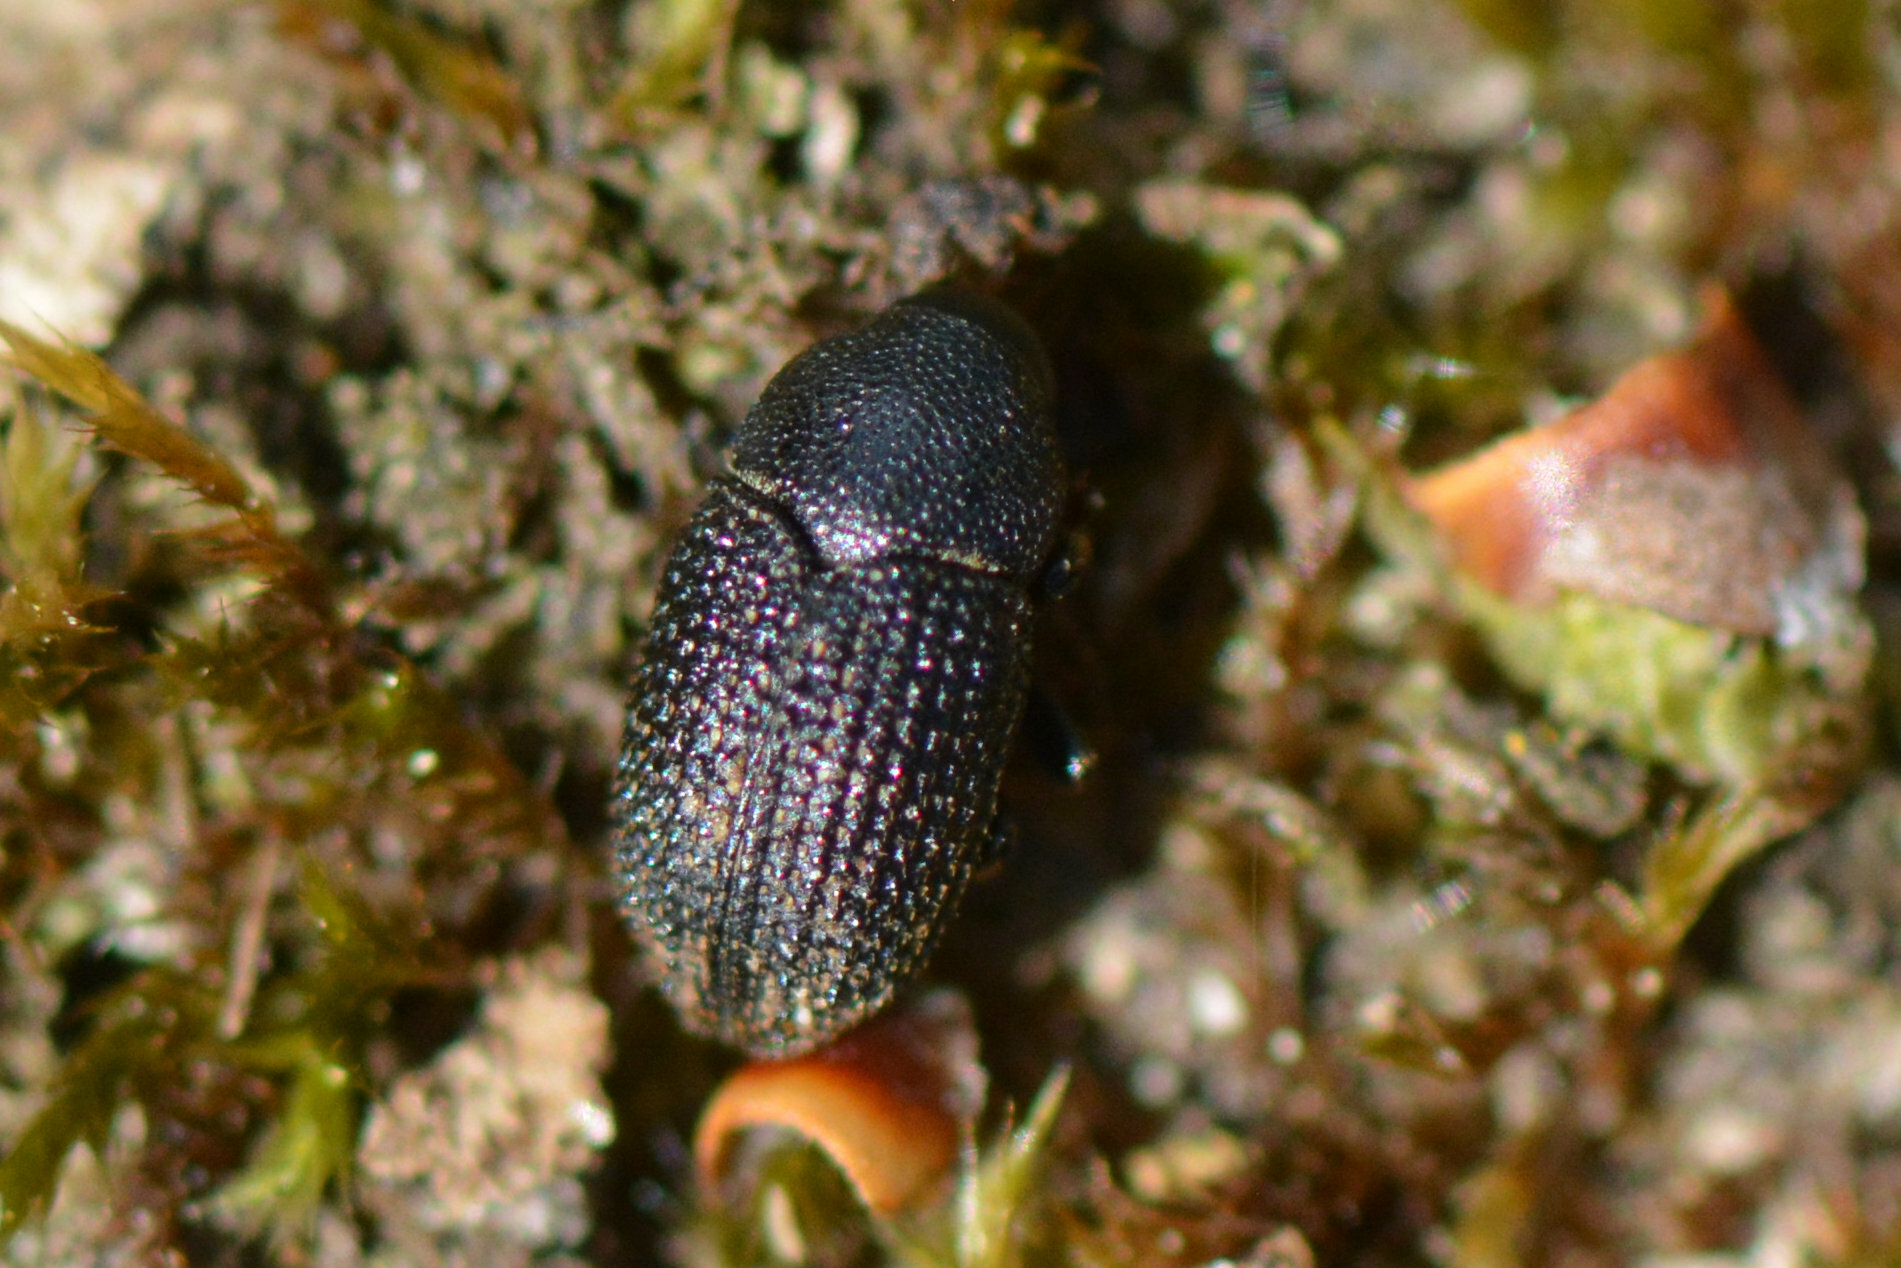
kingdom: Animalia
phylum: Arthropoda
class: Insecta
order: Coleoptera
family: Curculionidae
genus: Hylesinus
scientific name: Hylesinus crenatus
